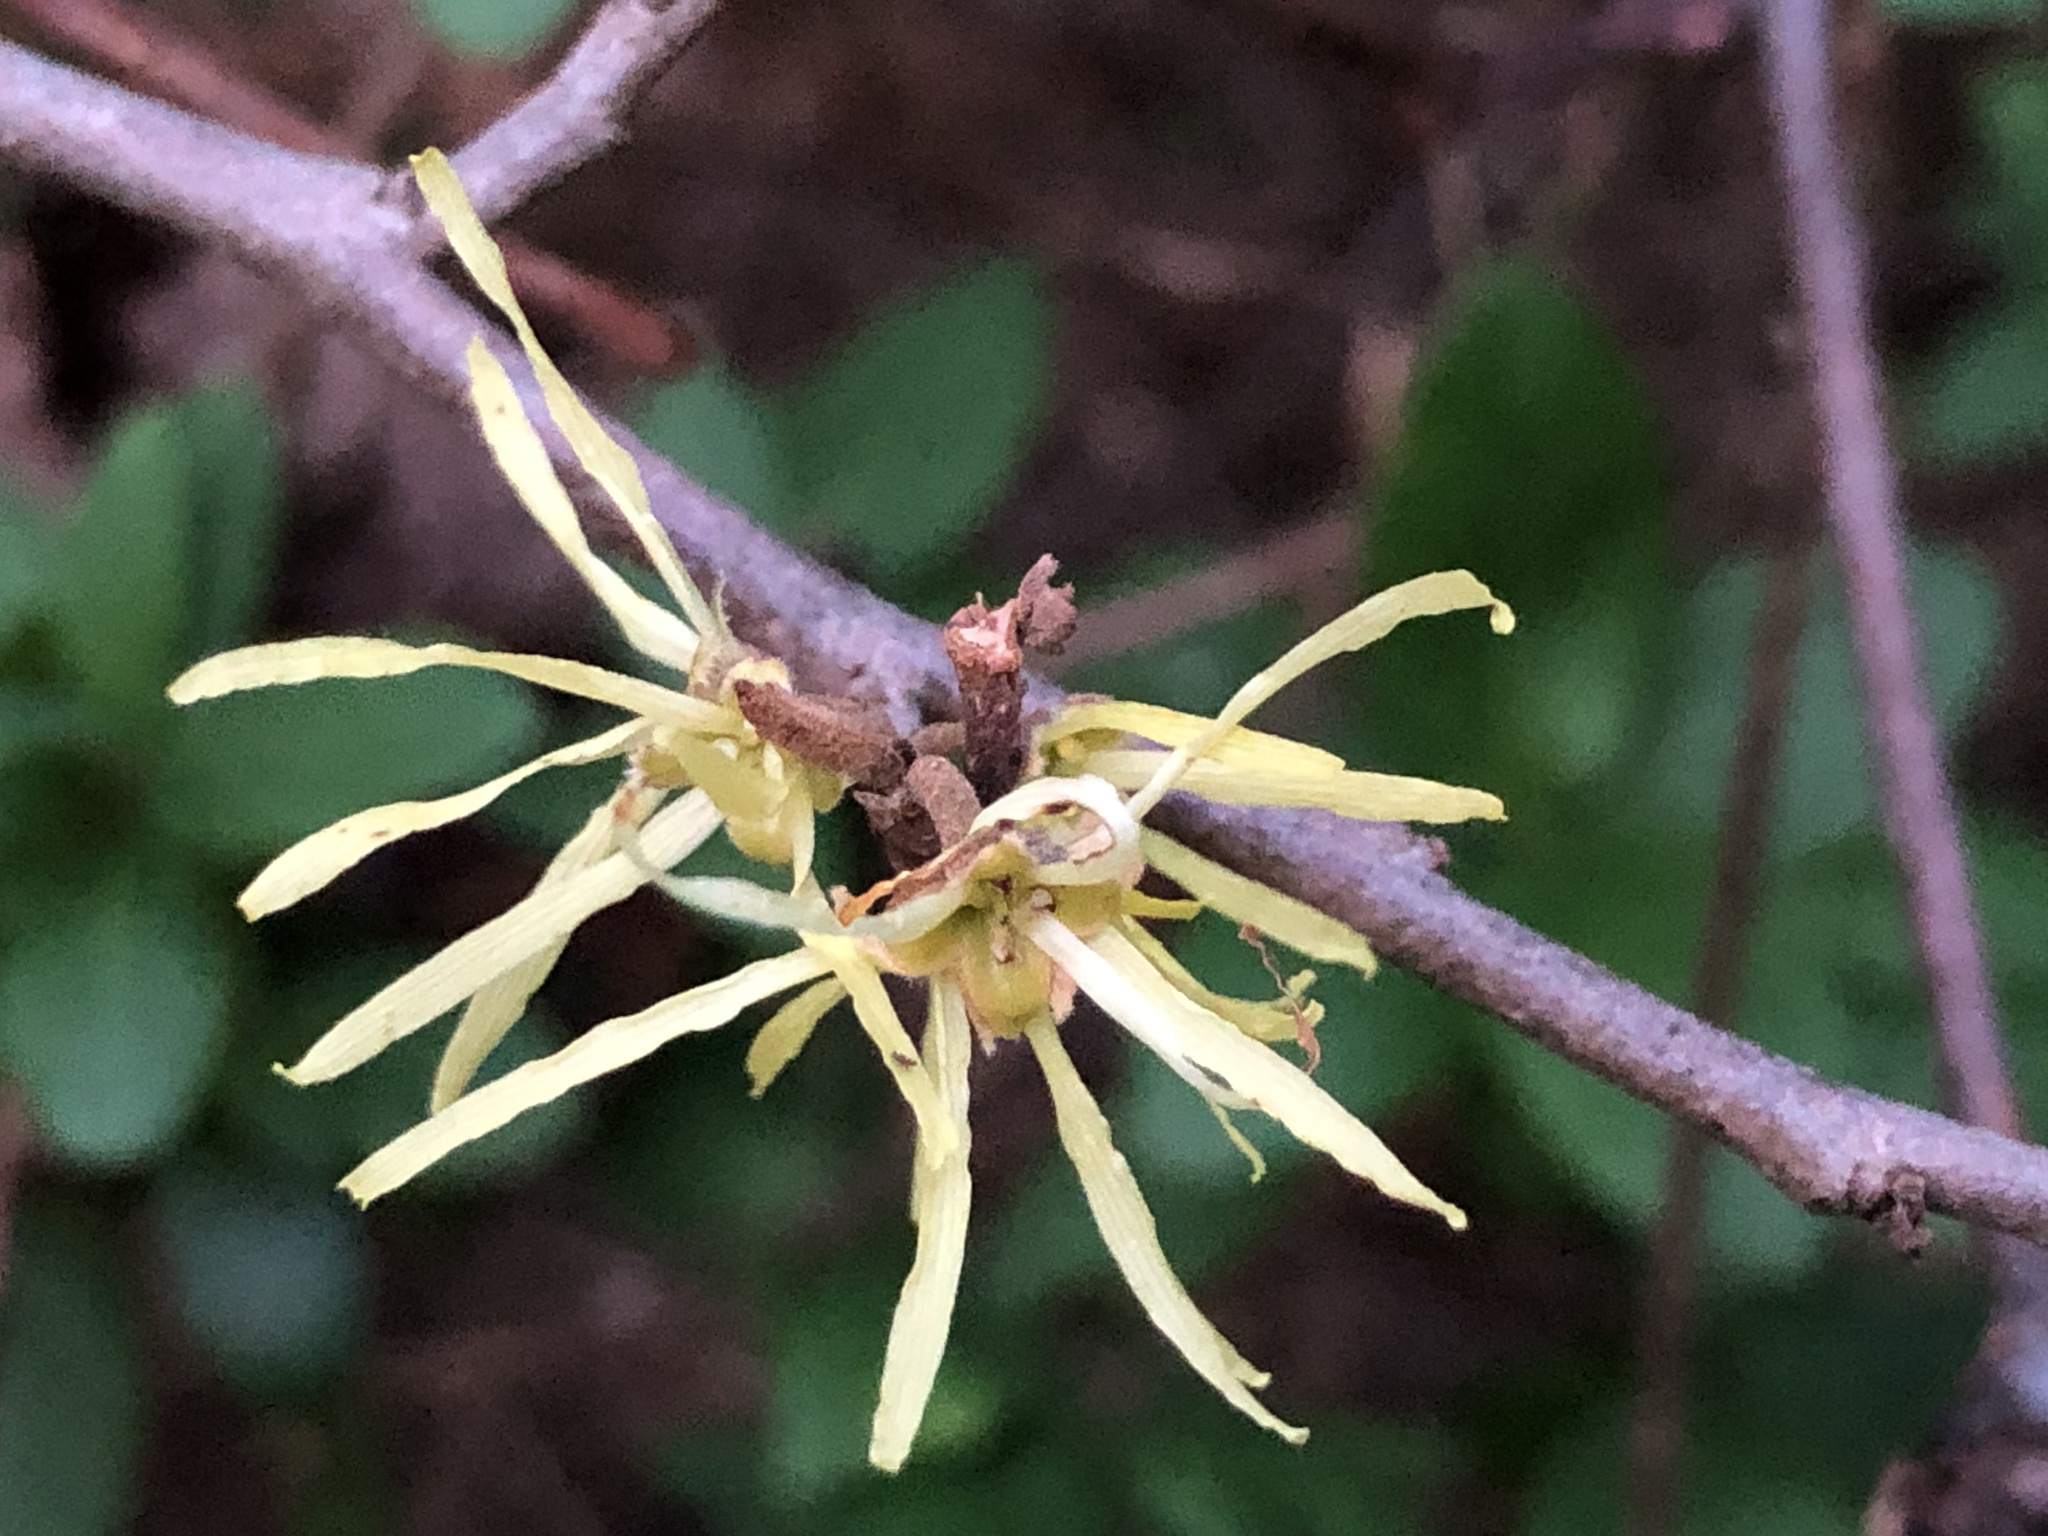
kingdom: Plantae
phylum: Tracheophyta
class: Magnoliopsida
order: Saxifragales
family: Hamamelidaceae
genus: Hamamelis
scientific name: Hamamelis virginiana
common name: Witch-hazel
